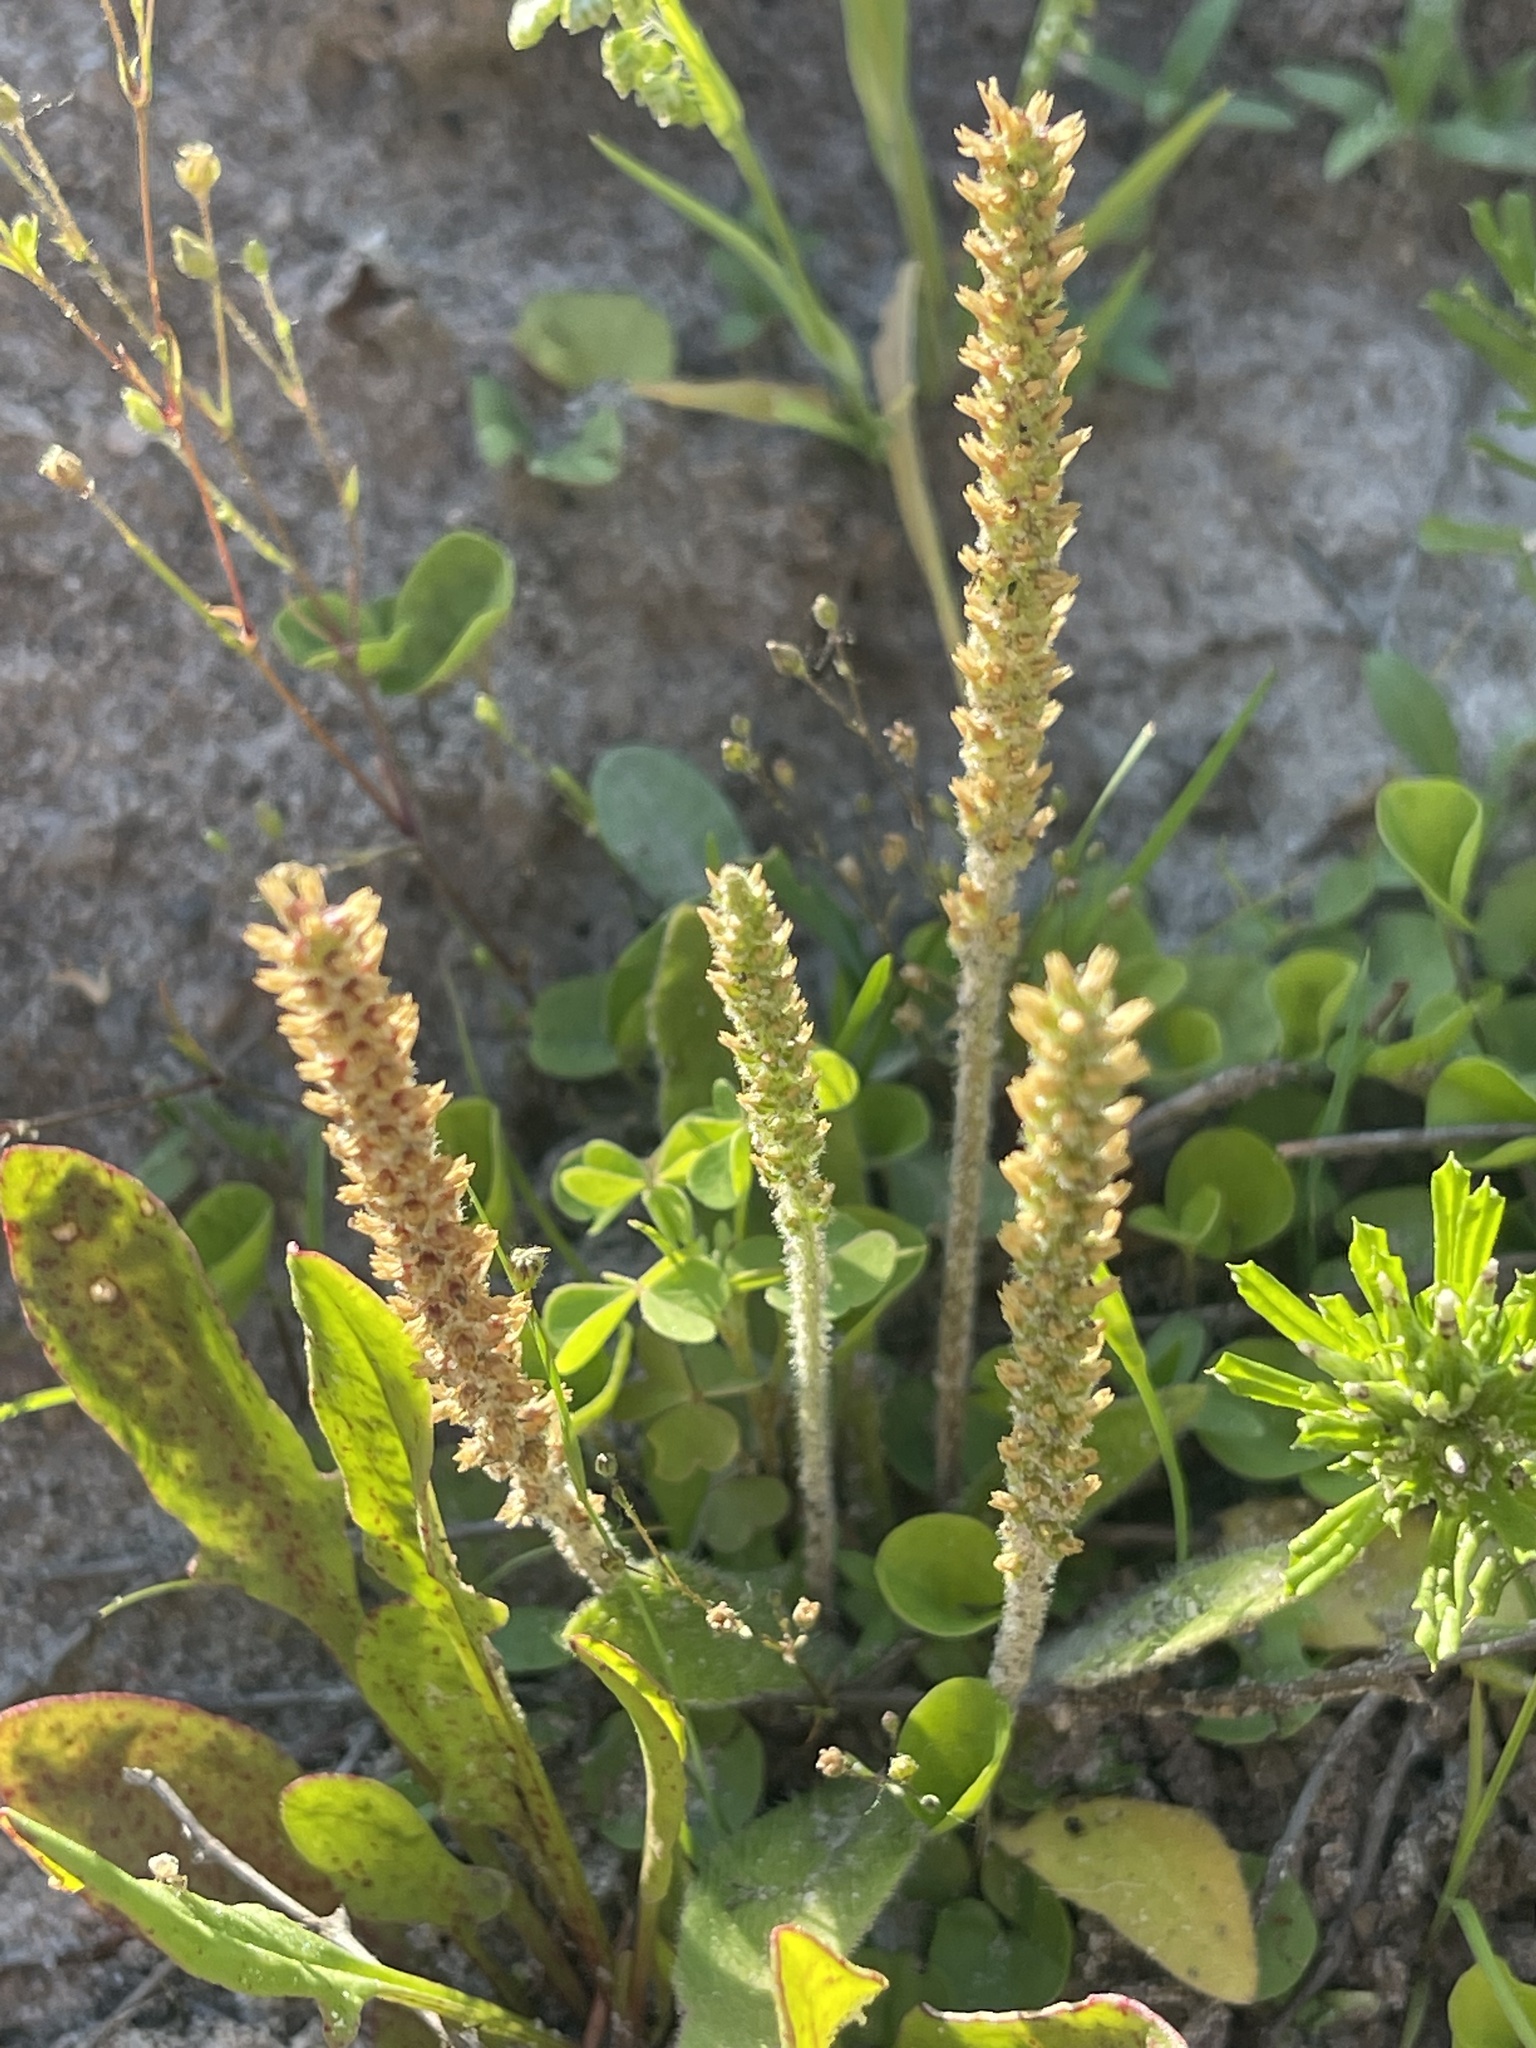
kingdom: Plantae
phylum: Tracheophyta
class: Magnoliopsida
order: Lamiales
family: Plantaginaceae
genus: Plantago
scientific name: Plantago virginica
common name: Hoary plantain
